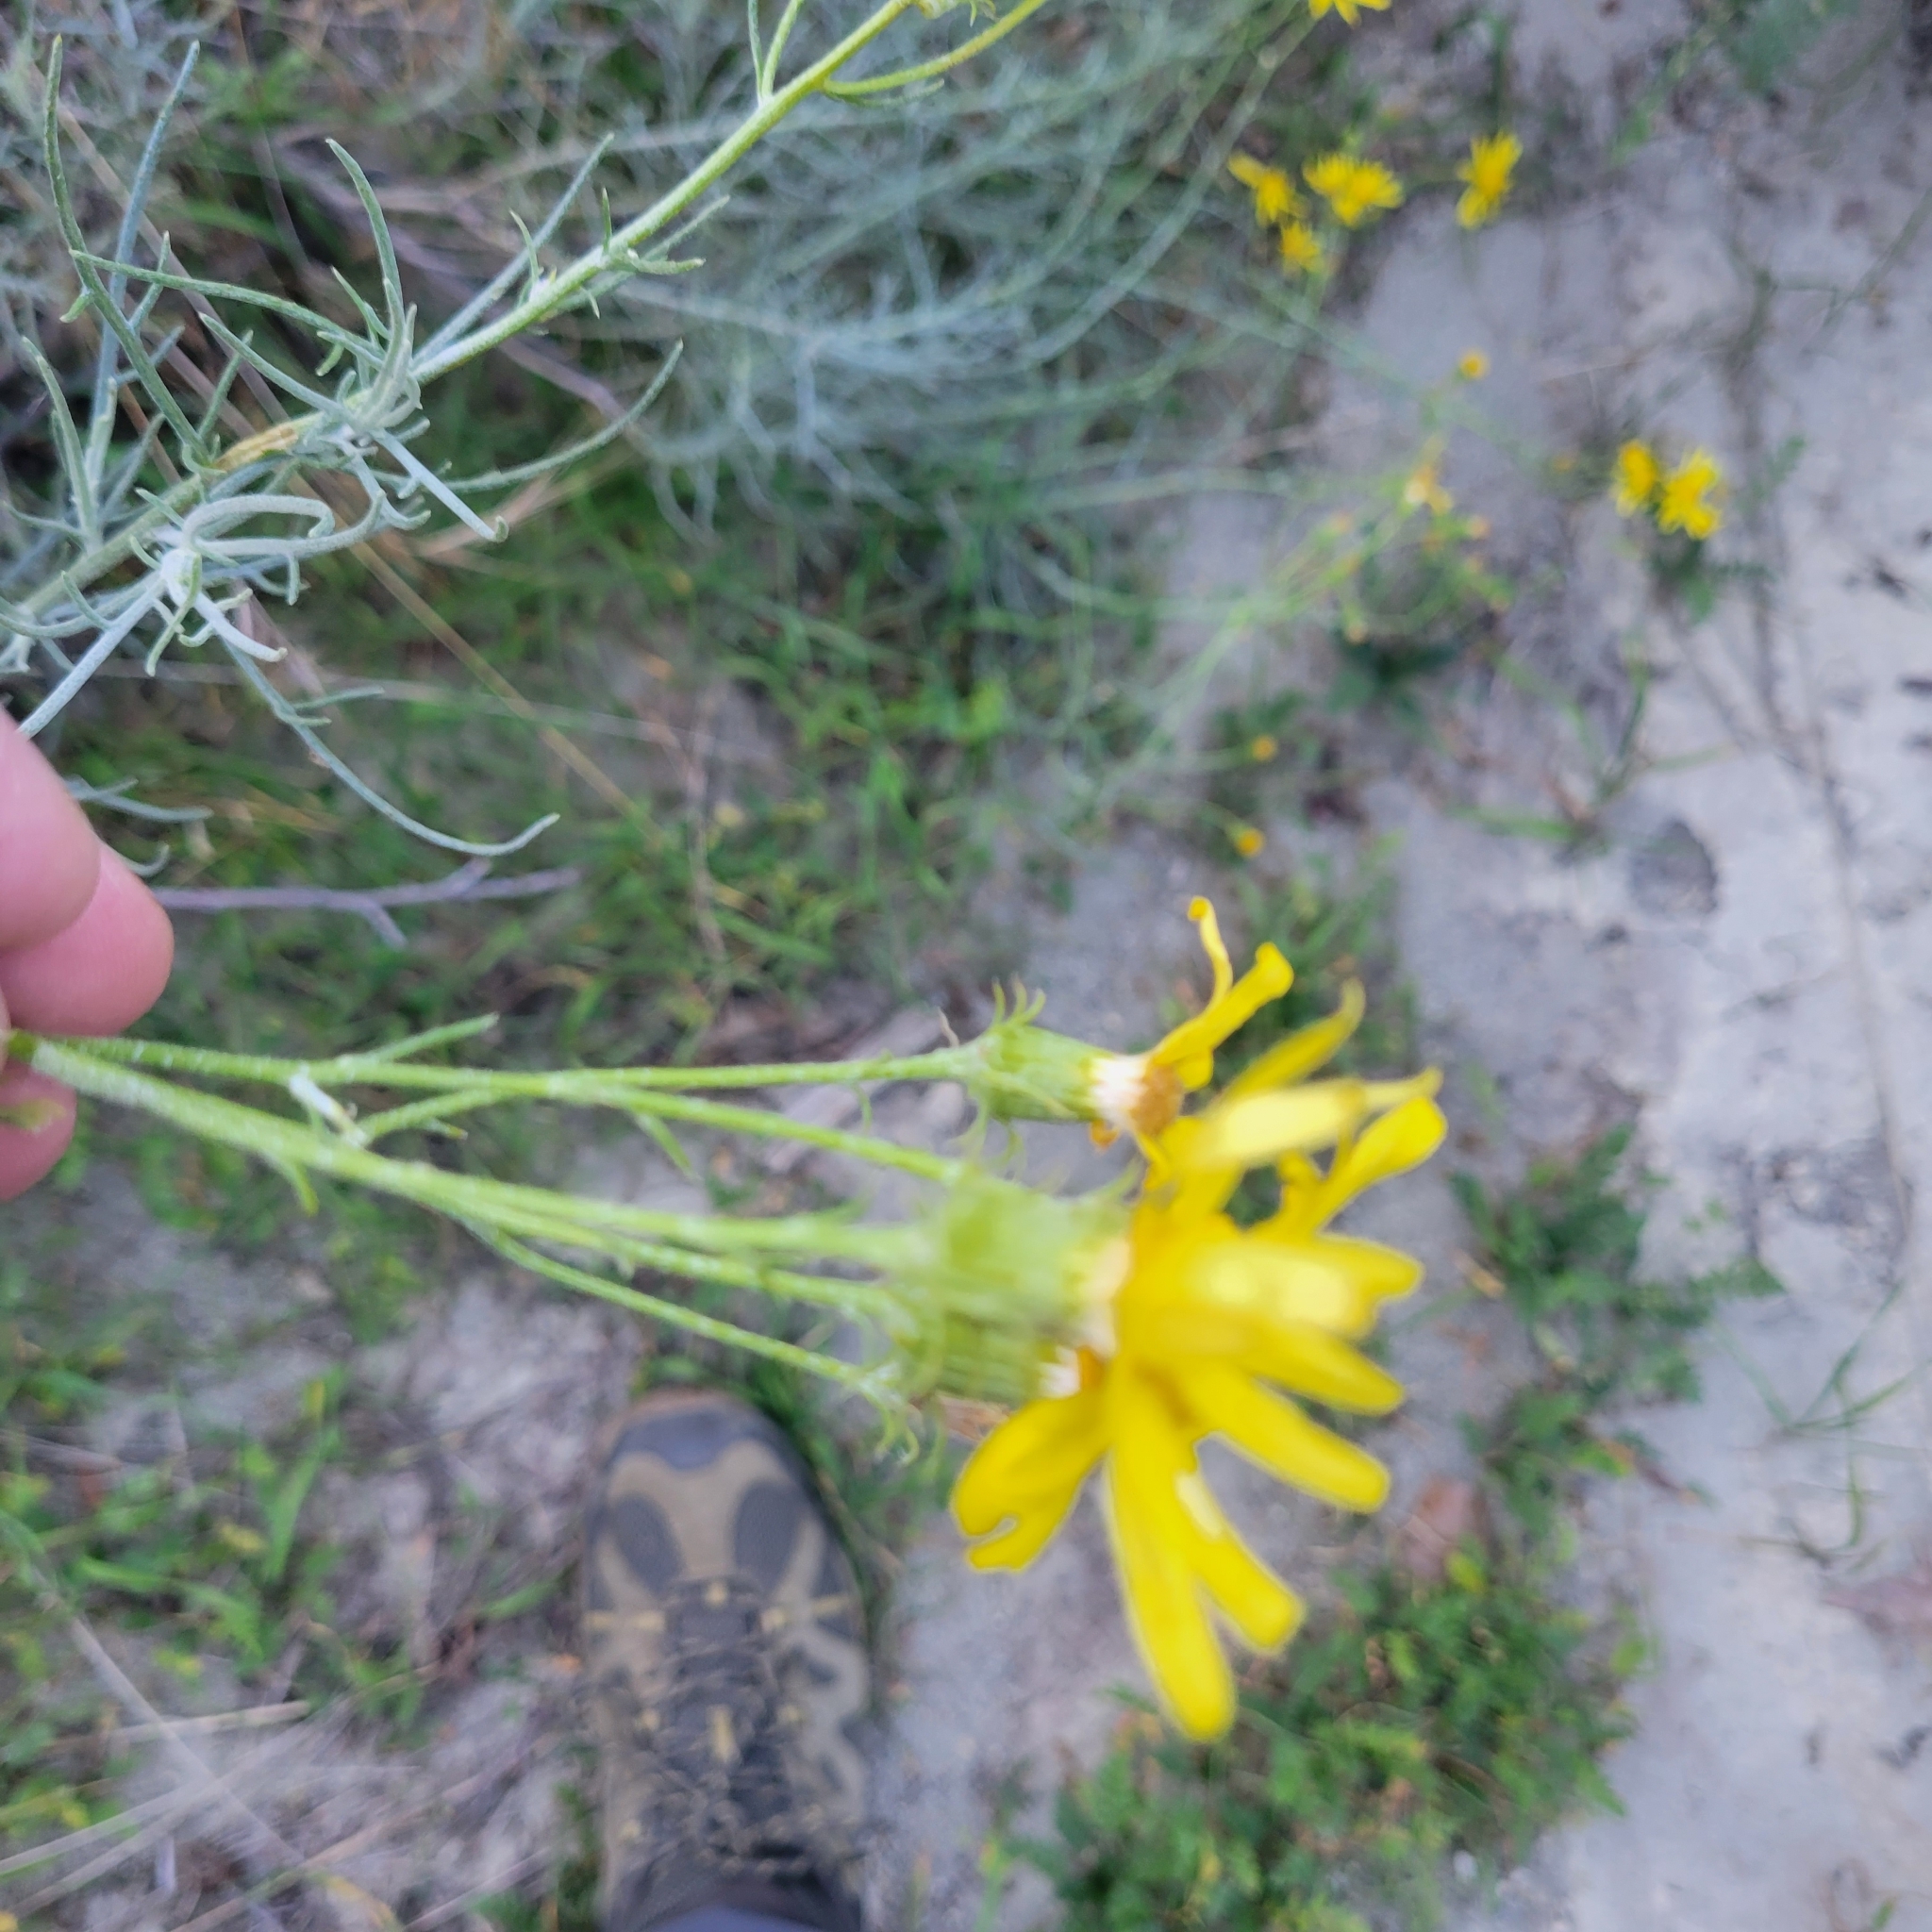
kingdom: Plantae
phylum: Tracheophyta
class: Magnoliopsida
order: Asterales
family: Asteraceae
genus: Senecio
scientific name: Senecio flaccidus
